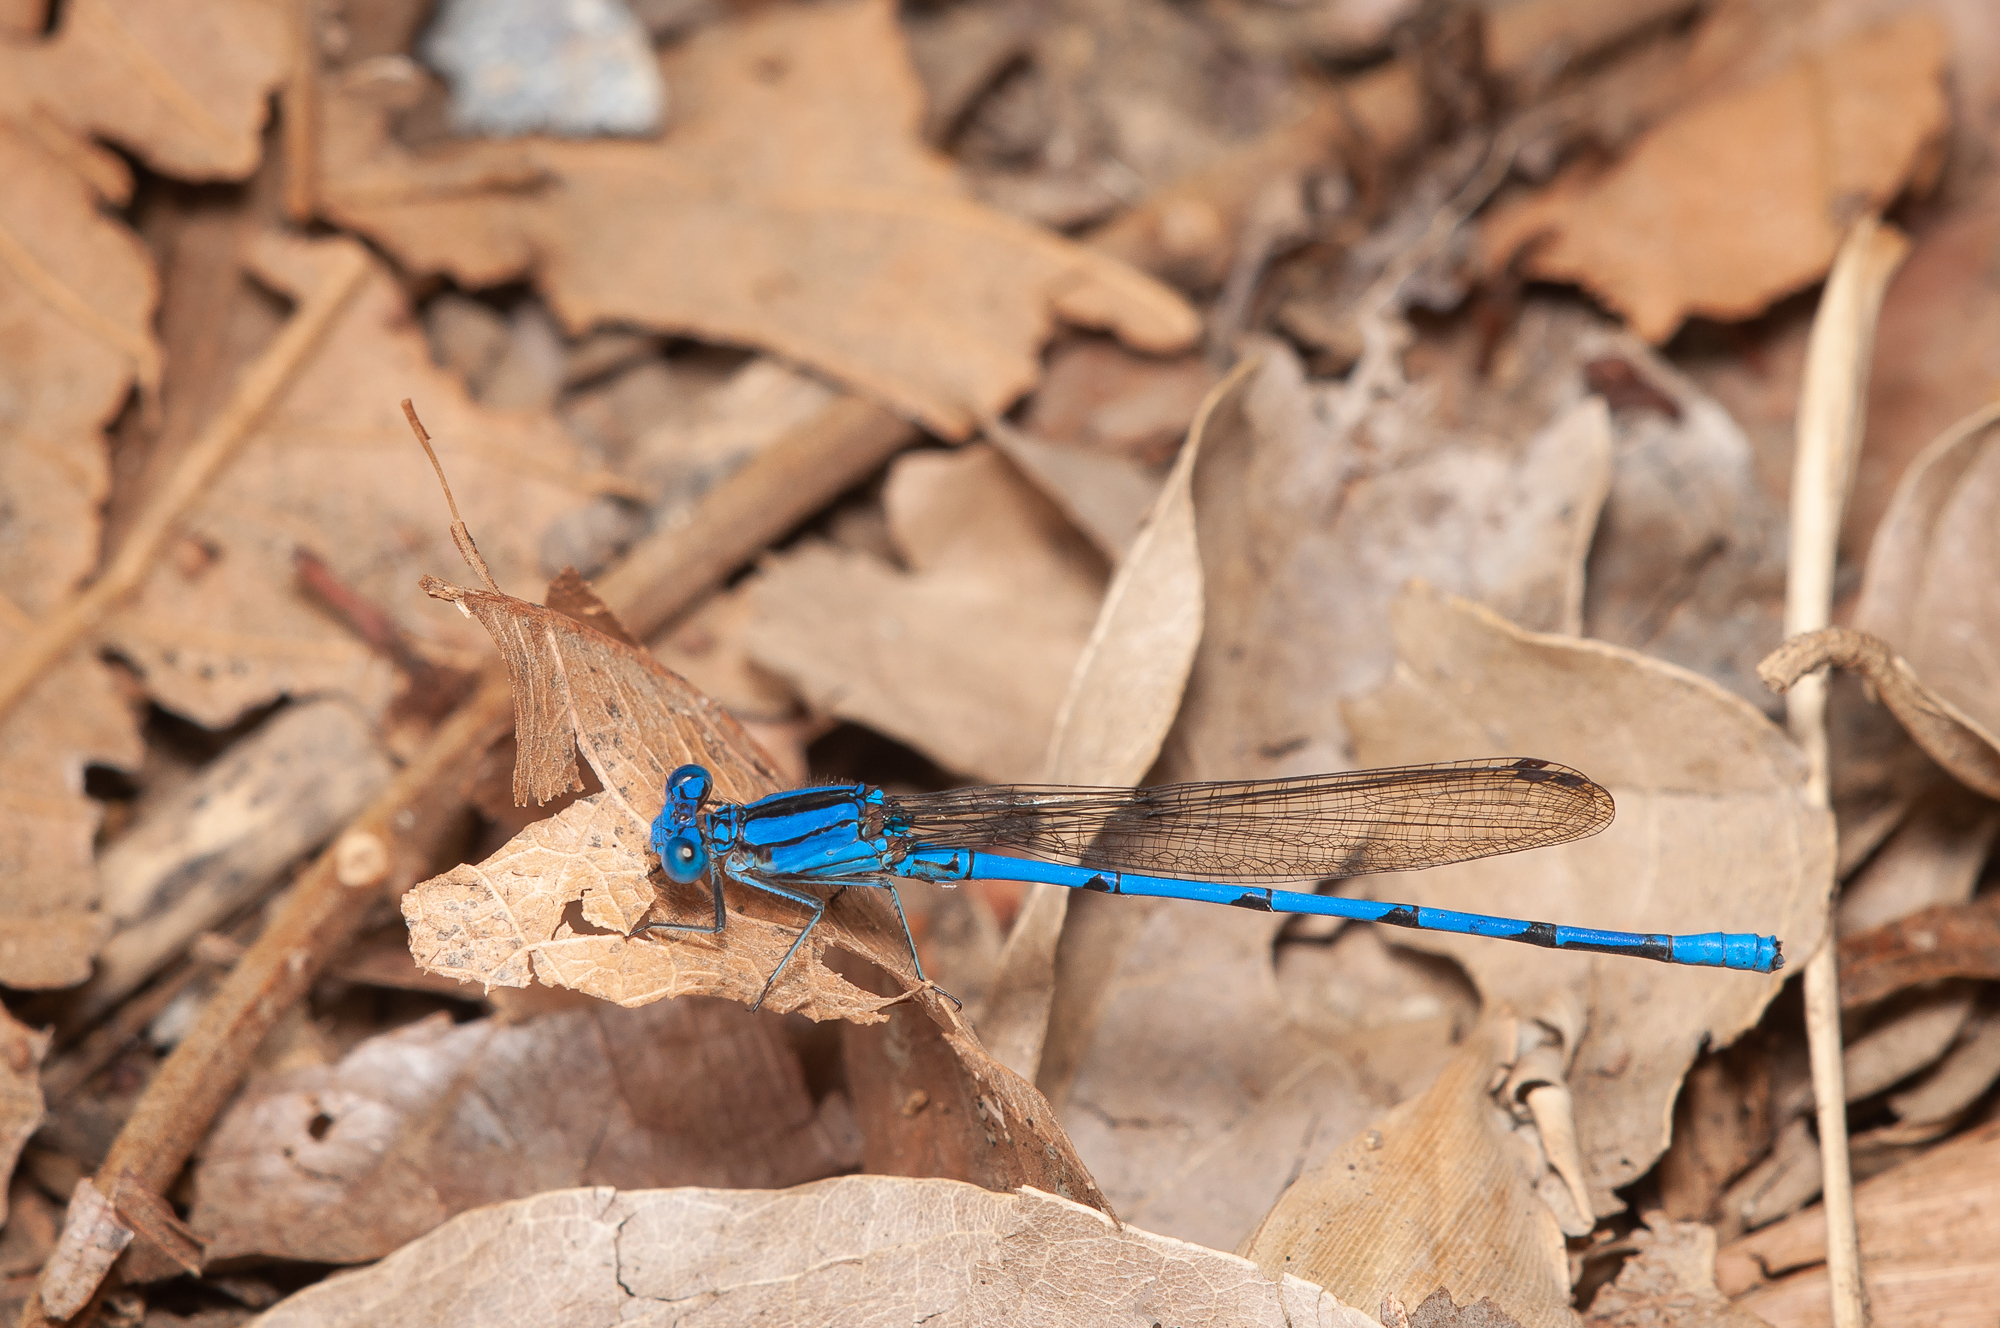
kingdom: Animalia
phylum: Arthropoda
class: Insecta
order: Odonata
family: Coenagrionidae
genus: Argia
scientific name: Argia anceps
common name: Cerulean dancer
